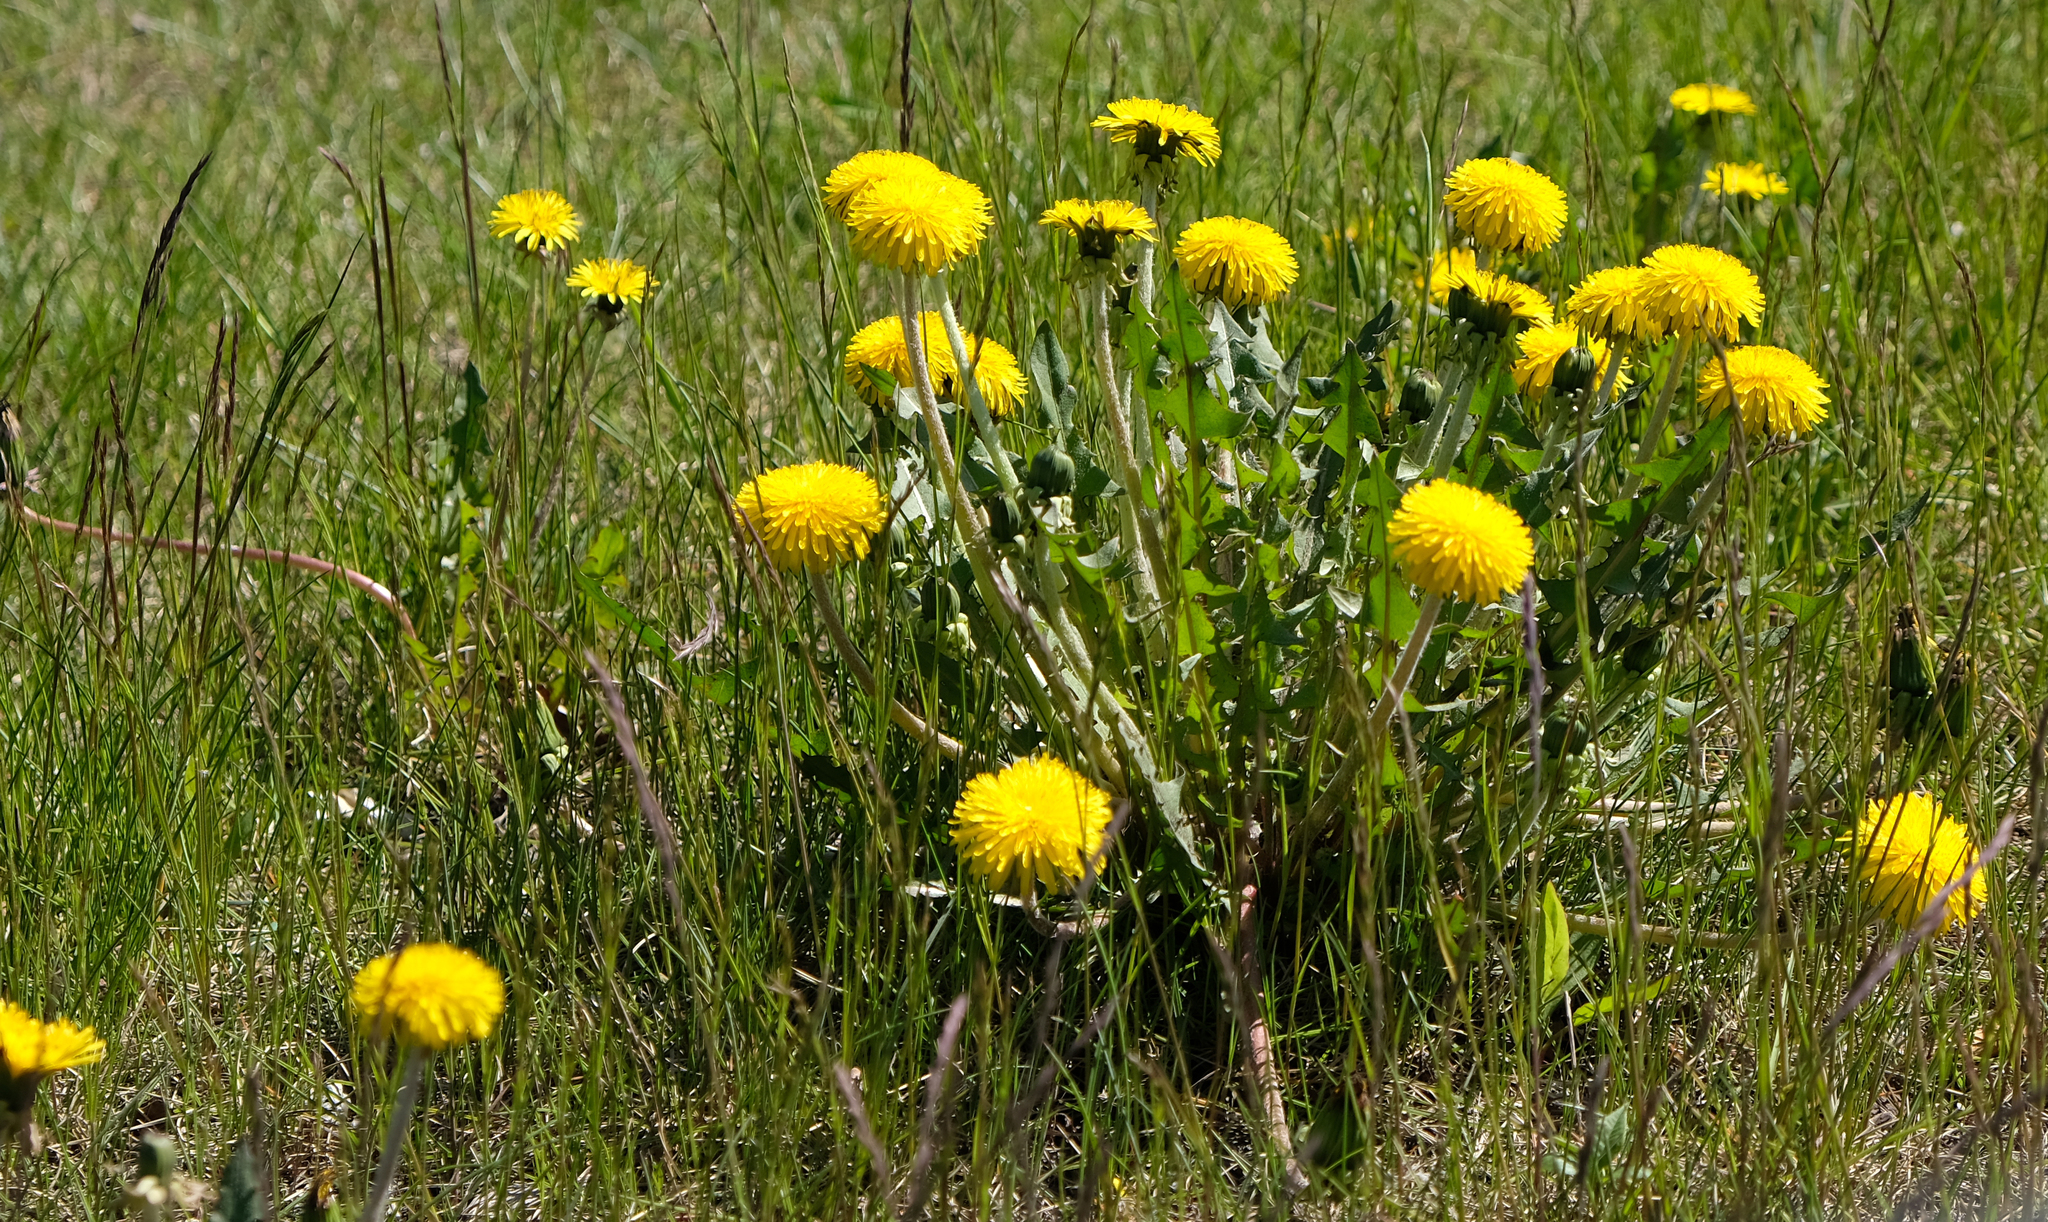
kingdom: Plantae
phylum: Tracheophyta
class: Magnoliopsida
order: Asterales
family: Asteraceae
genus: Taraxacum
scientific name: Taraxacum officinale
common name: Common dandelion
